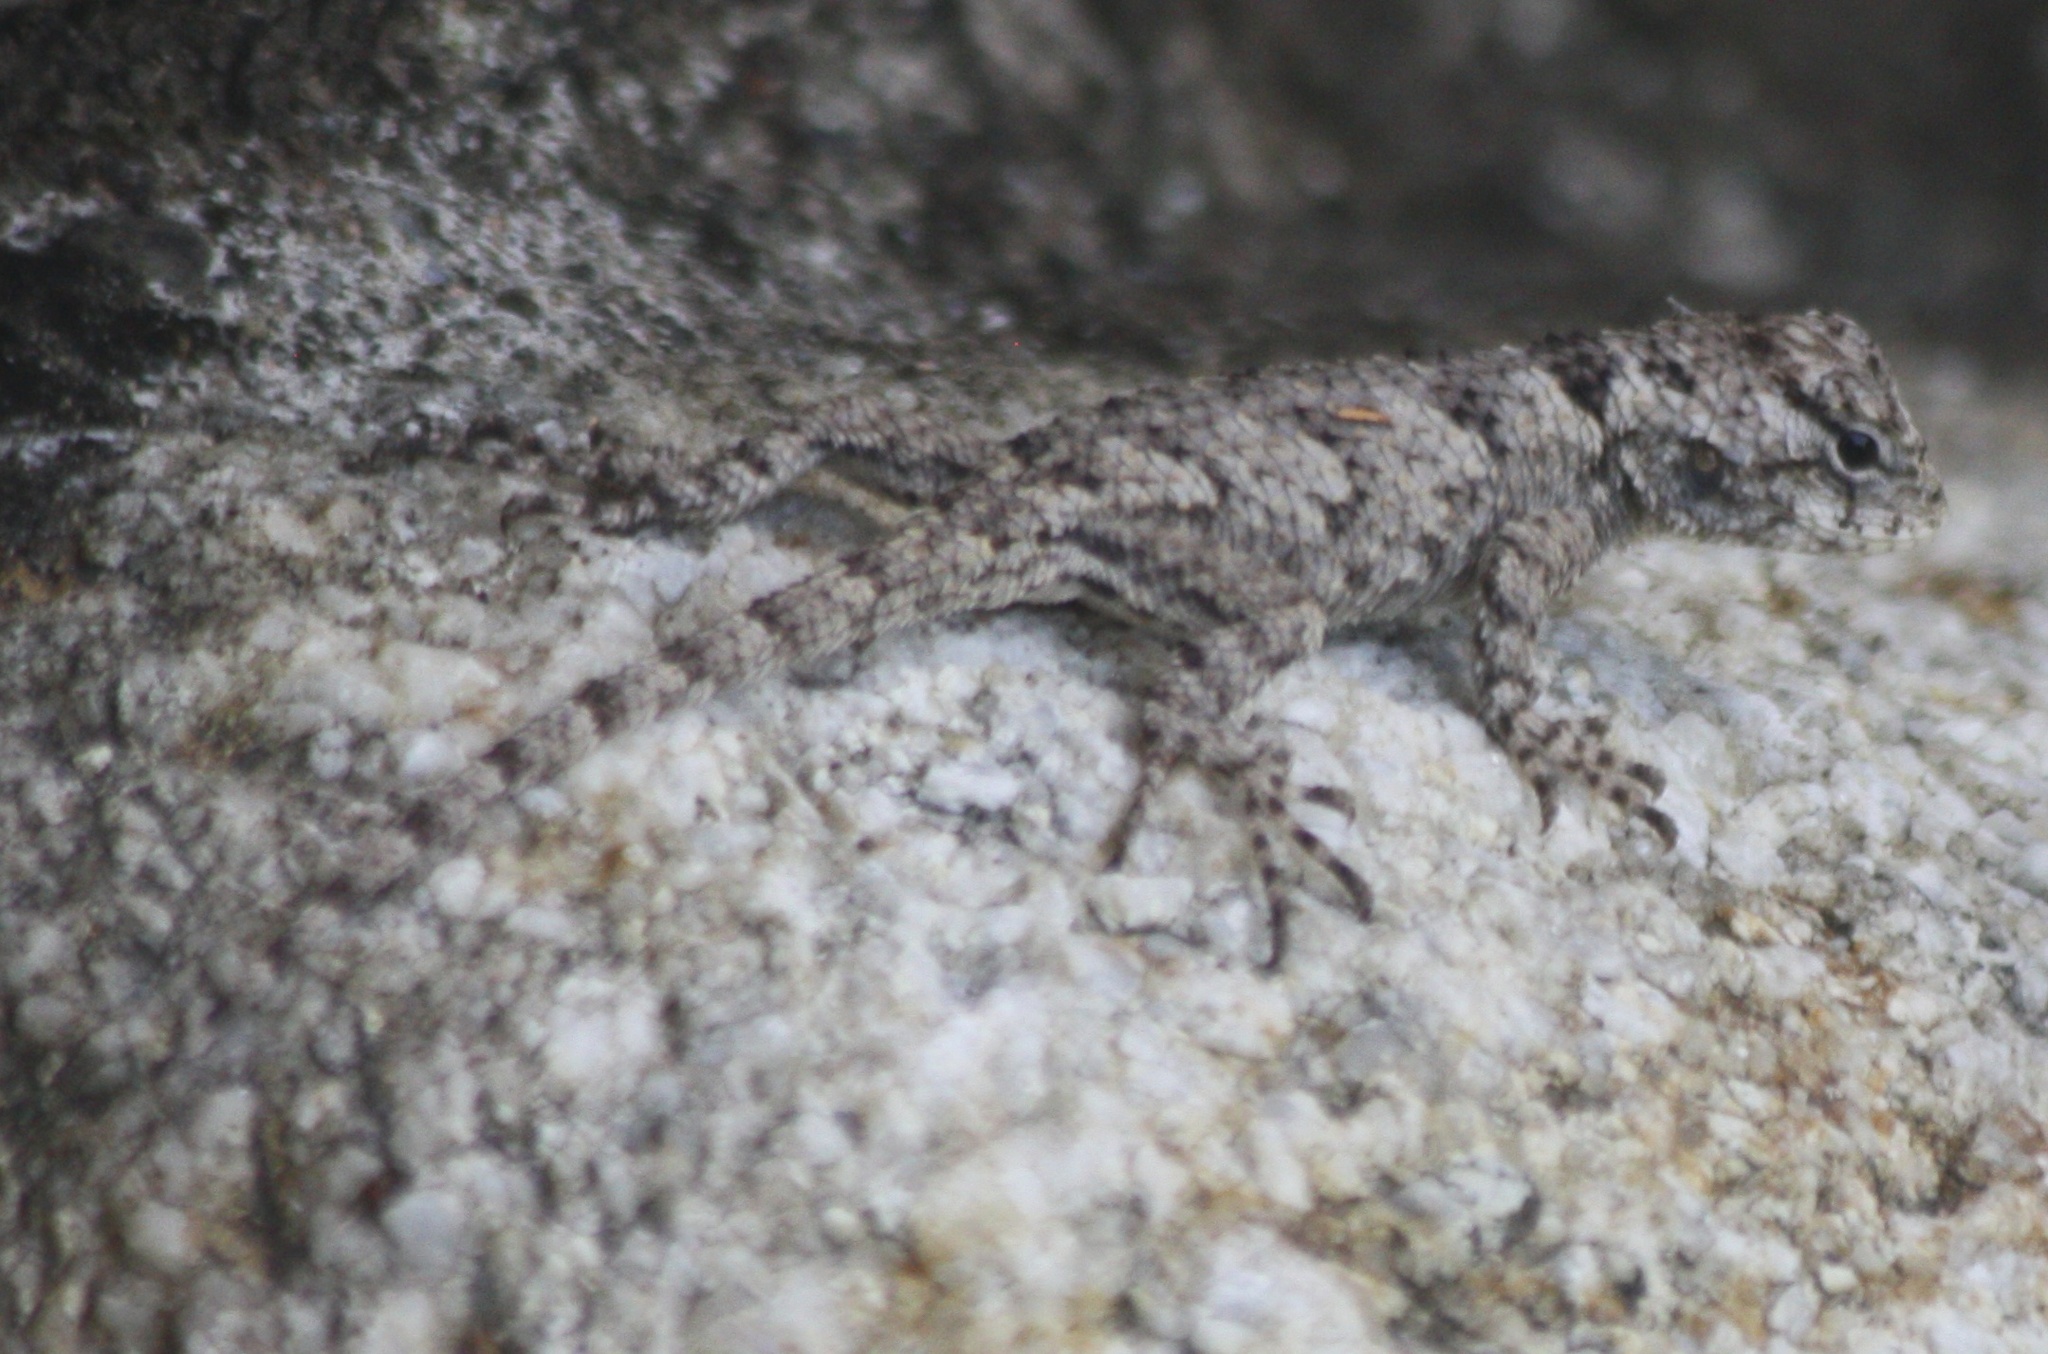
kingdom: Animalia
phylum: Chordata
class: Squamata
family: Phrynosomatidae
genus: Sceloporus
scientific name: Sceloporus melanorhinus
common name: Black-nosed lizard
